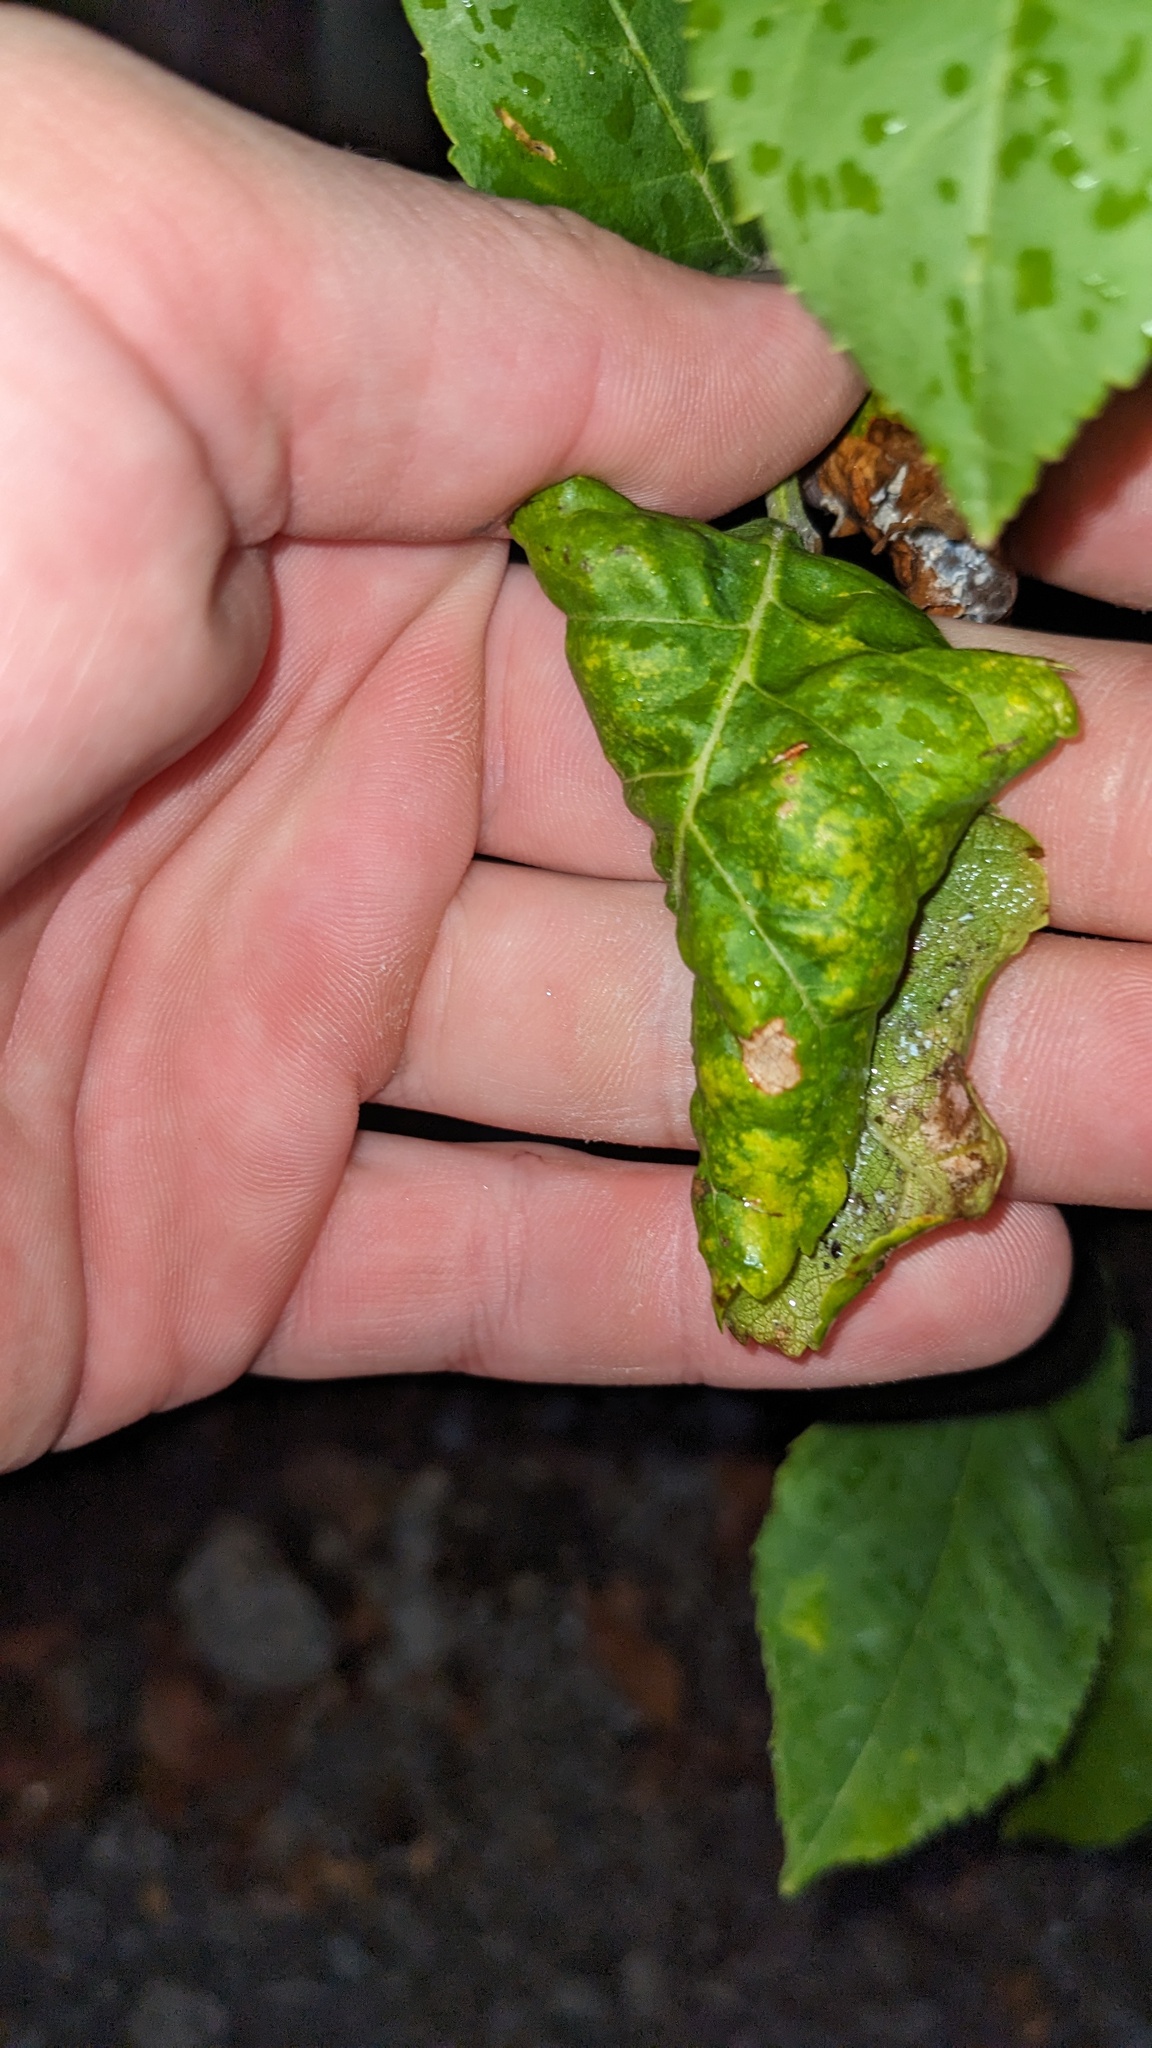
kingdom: Animalia
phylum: Arthropoda
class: Insecta
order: Hemiptera
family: Aphididae
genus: Prociphilus
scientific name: Prociphilus fraxinifolii
